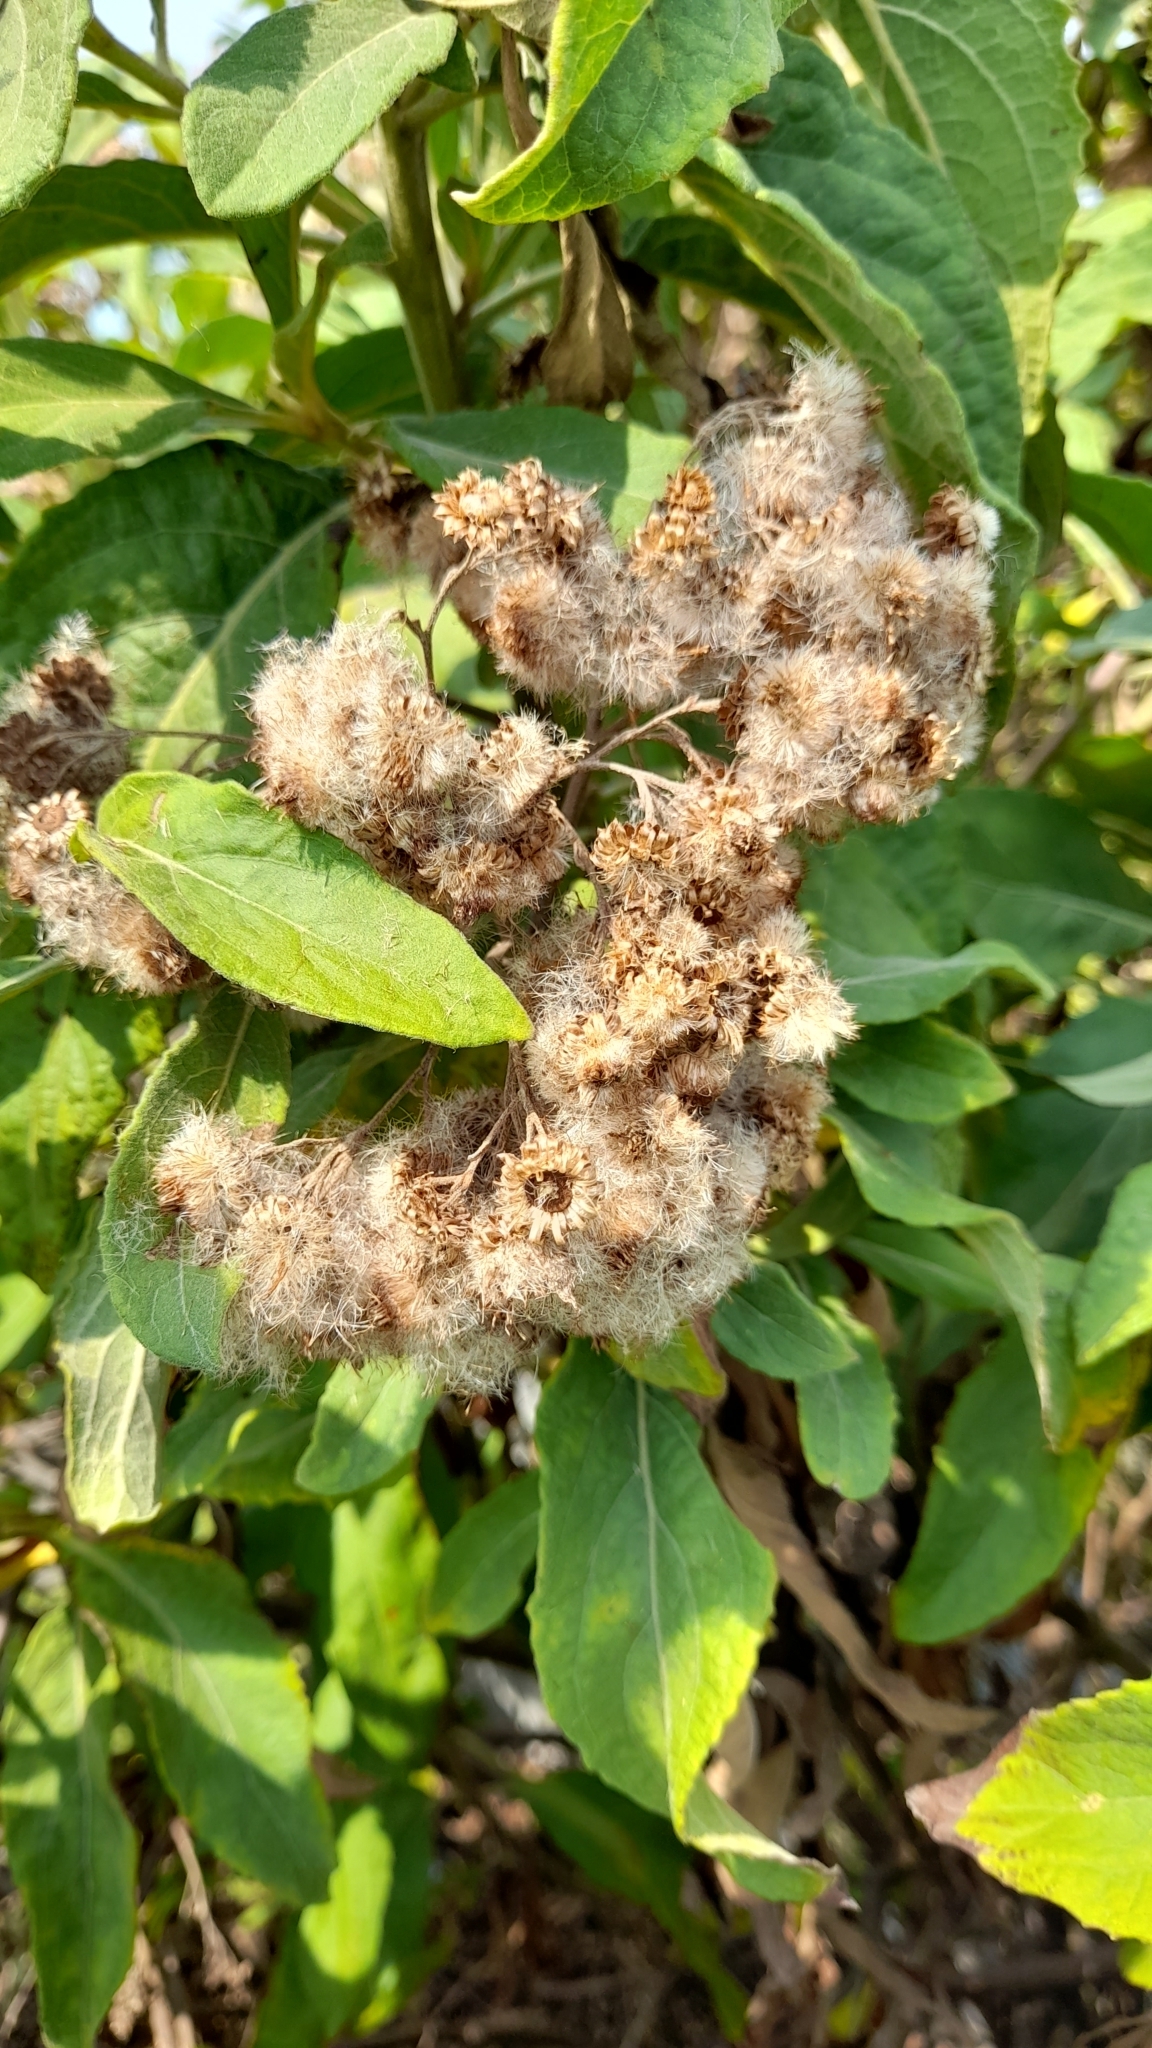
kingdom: Plantae
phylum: Tracheophyta
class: Magnoliopsida
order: Asterales
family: Asteraceae
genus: Pluchea
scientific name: Pluchea carolinensis
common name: Marsh fleabane
